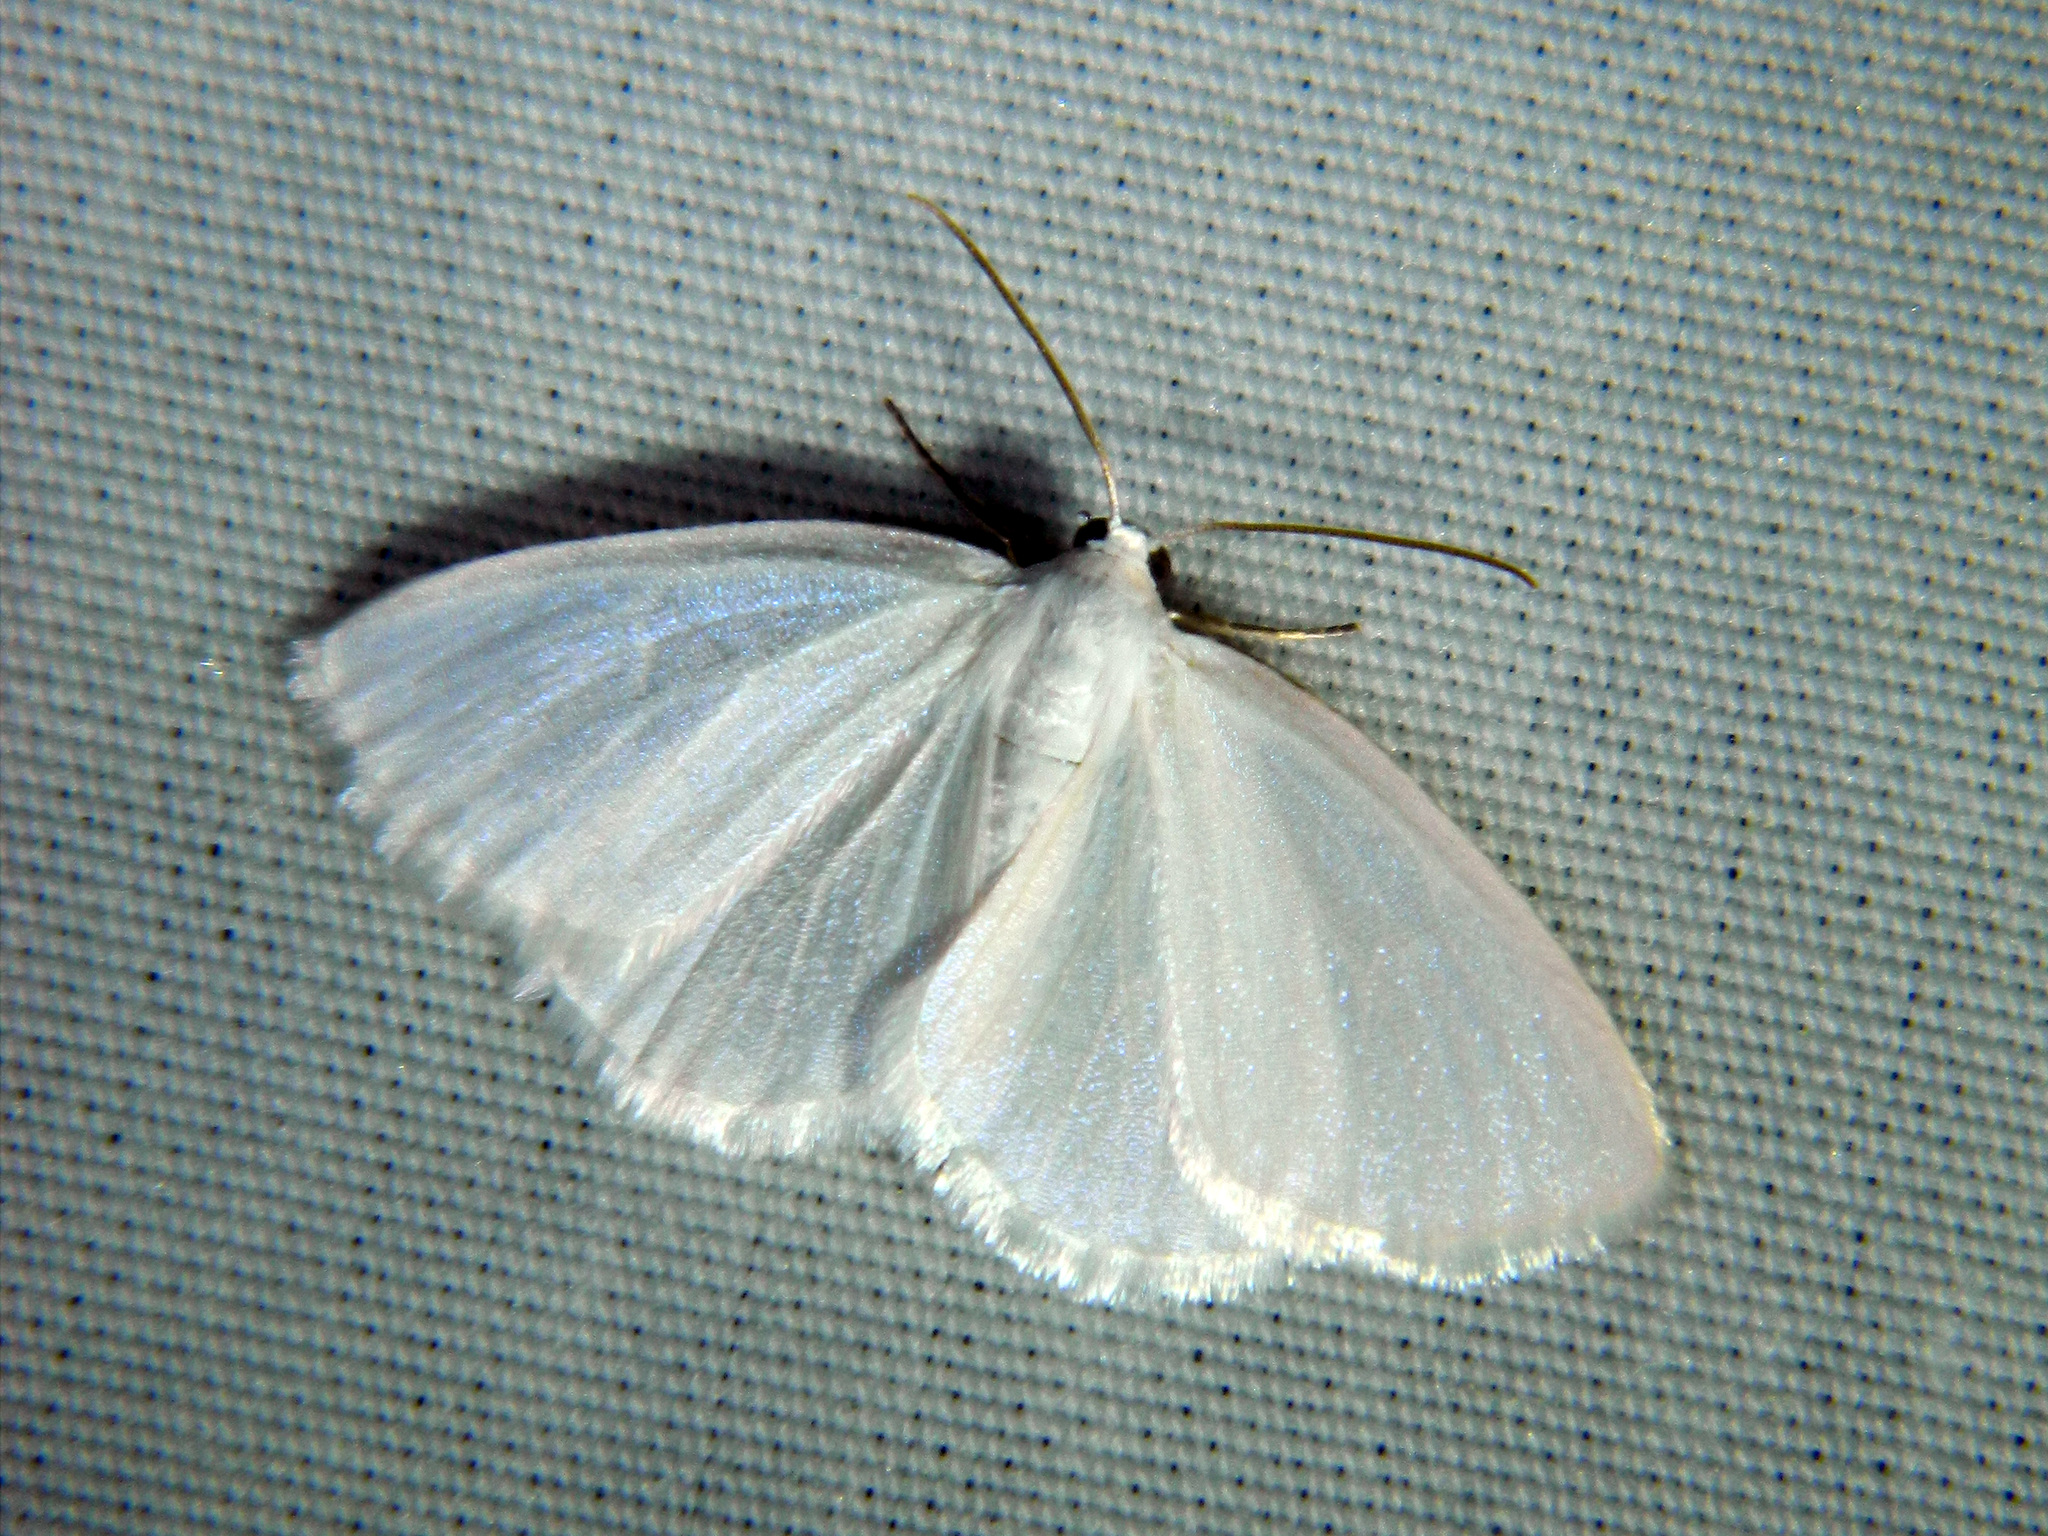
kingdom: Animalia
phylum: Arthropoda
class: Insecta
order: Lepidoptera
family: Geometridae
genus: Lomographa
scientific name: Lomographa vestaliata
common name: White spring moth
